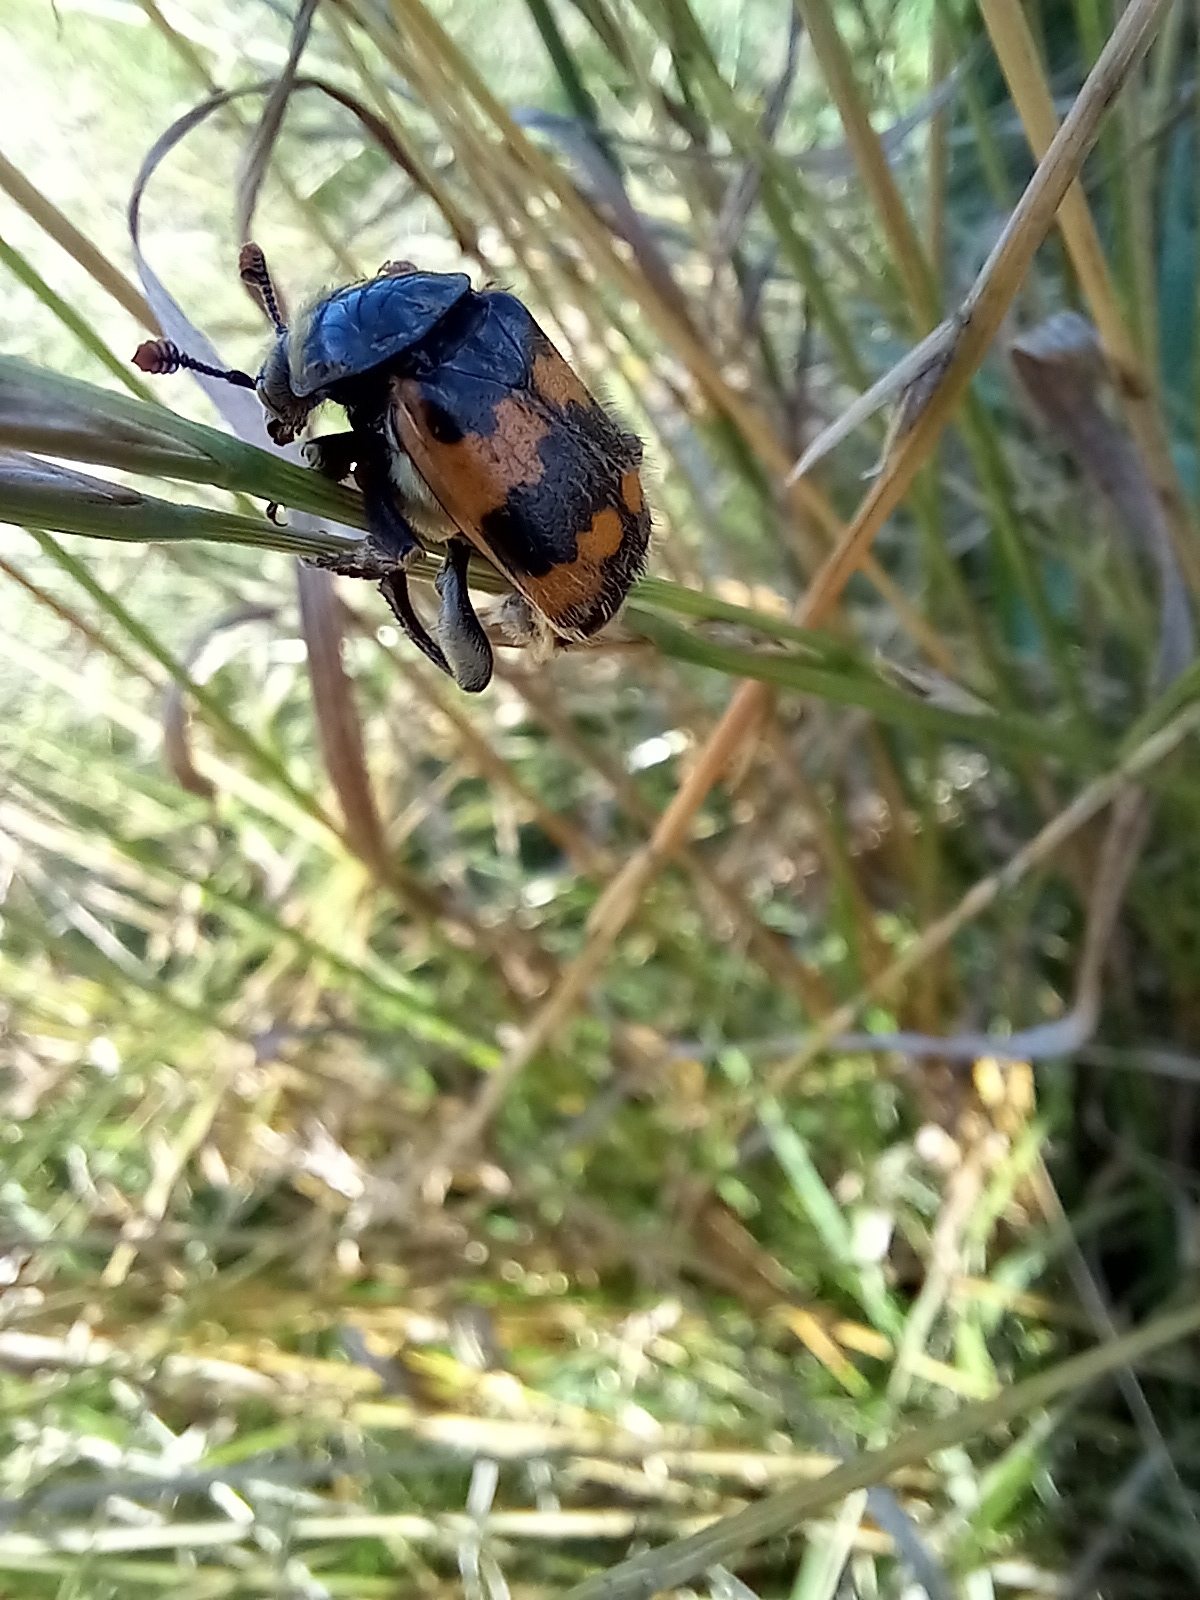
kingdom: Animalia
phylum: Arthropoda
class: Insecta
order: Coleoptera
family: Staphylinidae
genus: Nicrophorus
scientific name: Nicrophorus vespillo
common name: Common burying beetle
